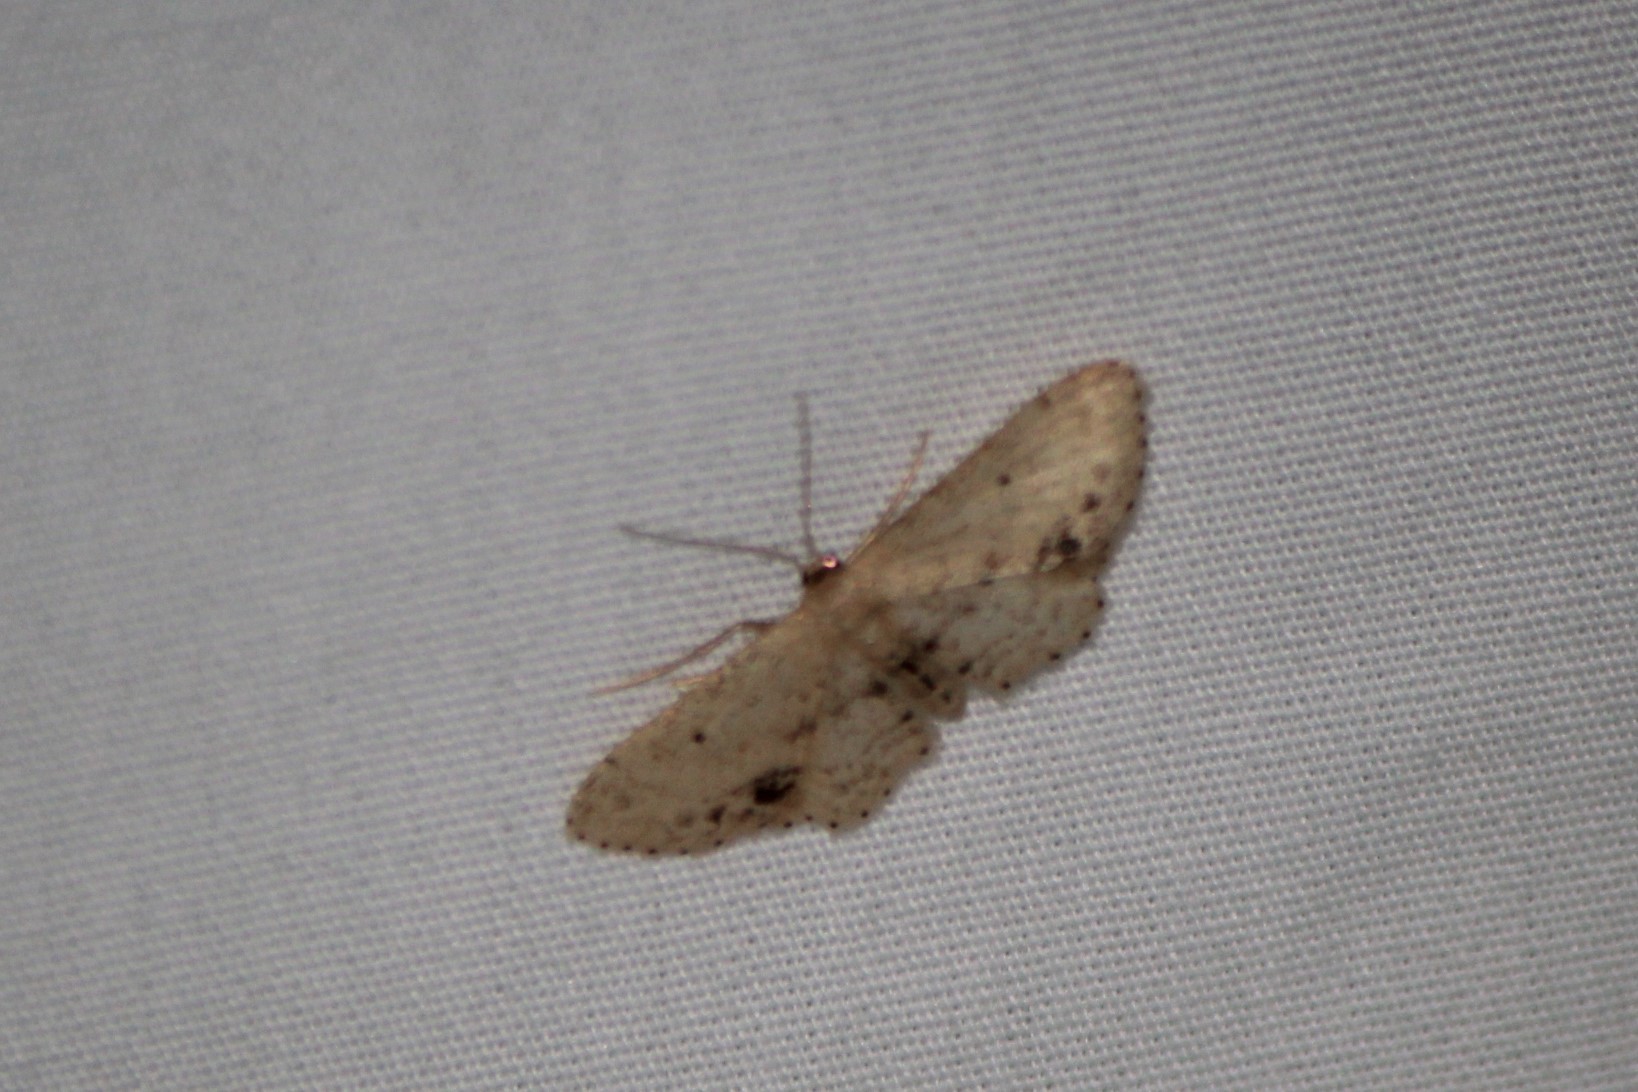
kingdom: Animalia
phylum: Arthropoda
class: Insecta
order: Lepidoptera
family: Geometridae
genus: Idaea
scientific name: Idaea dimidiata
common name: Single-dotted wave
